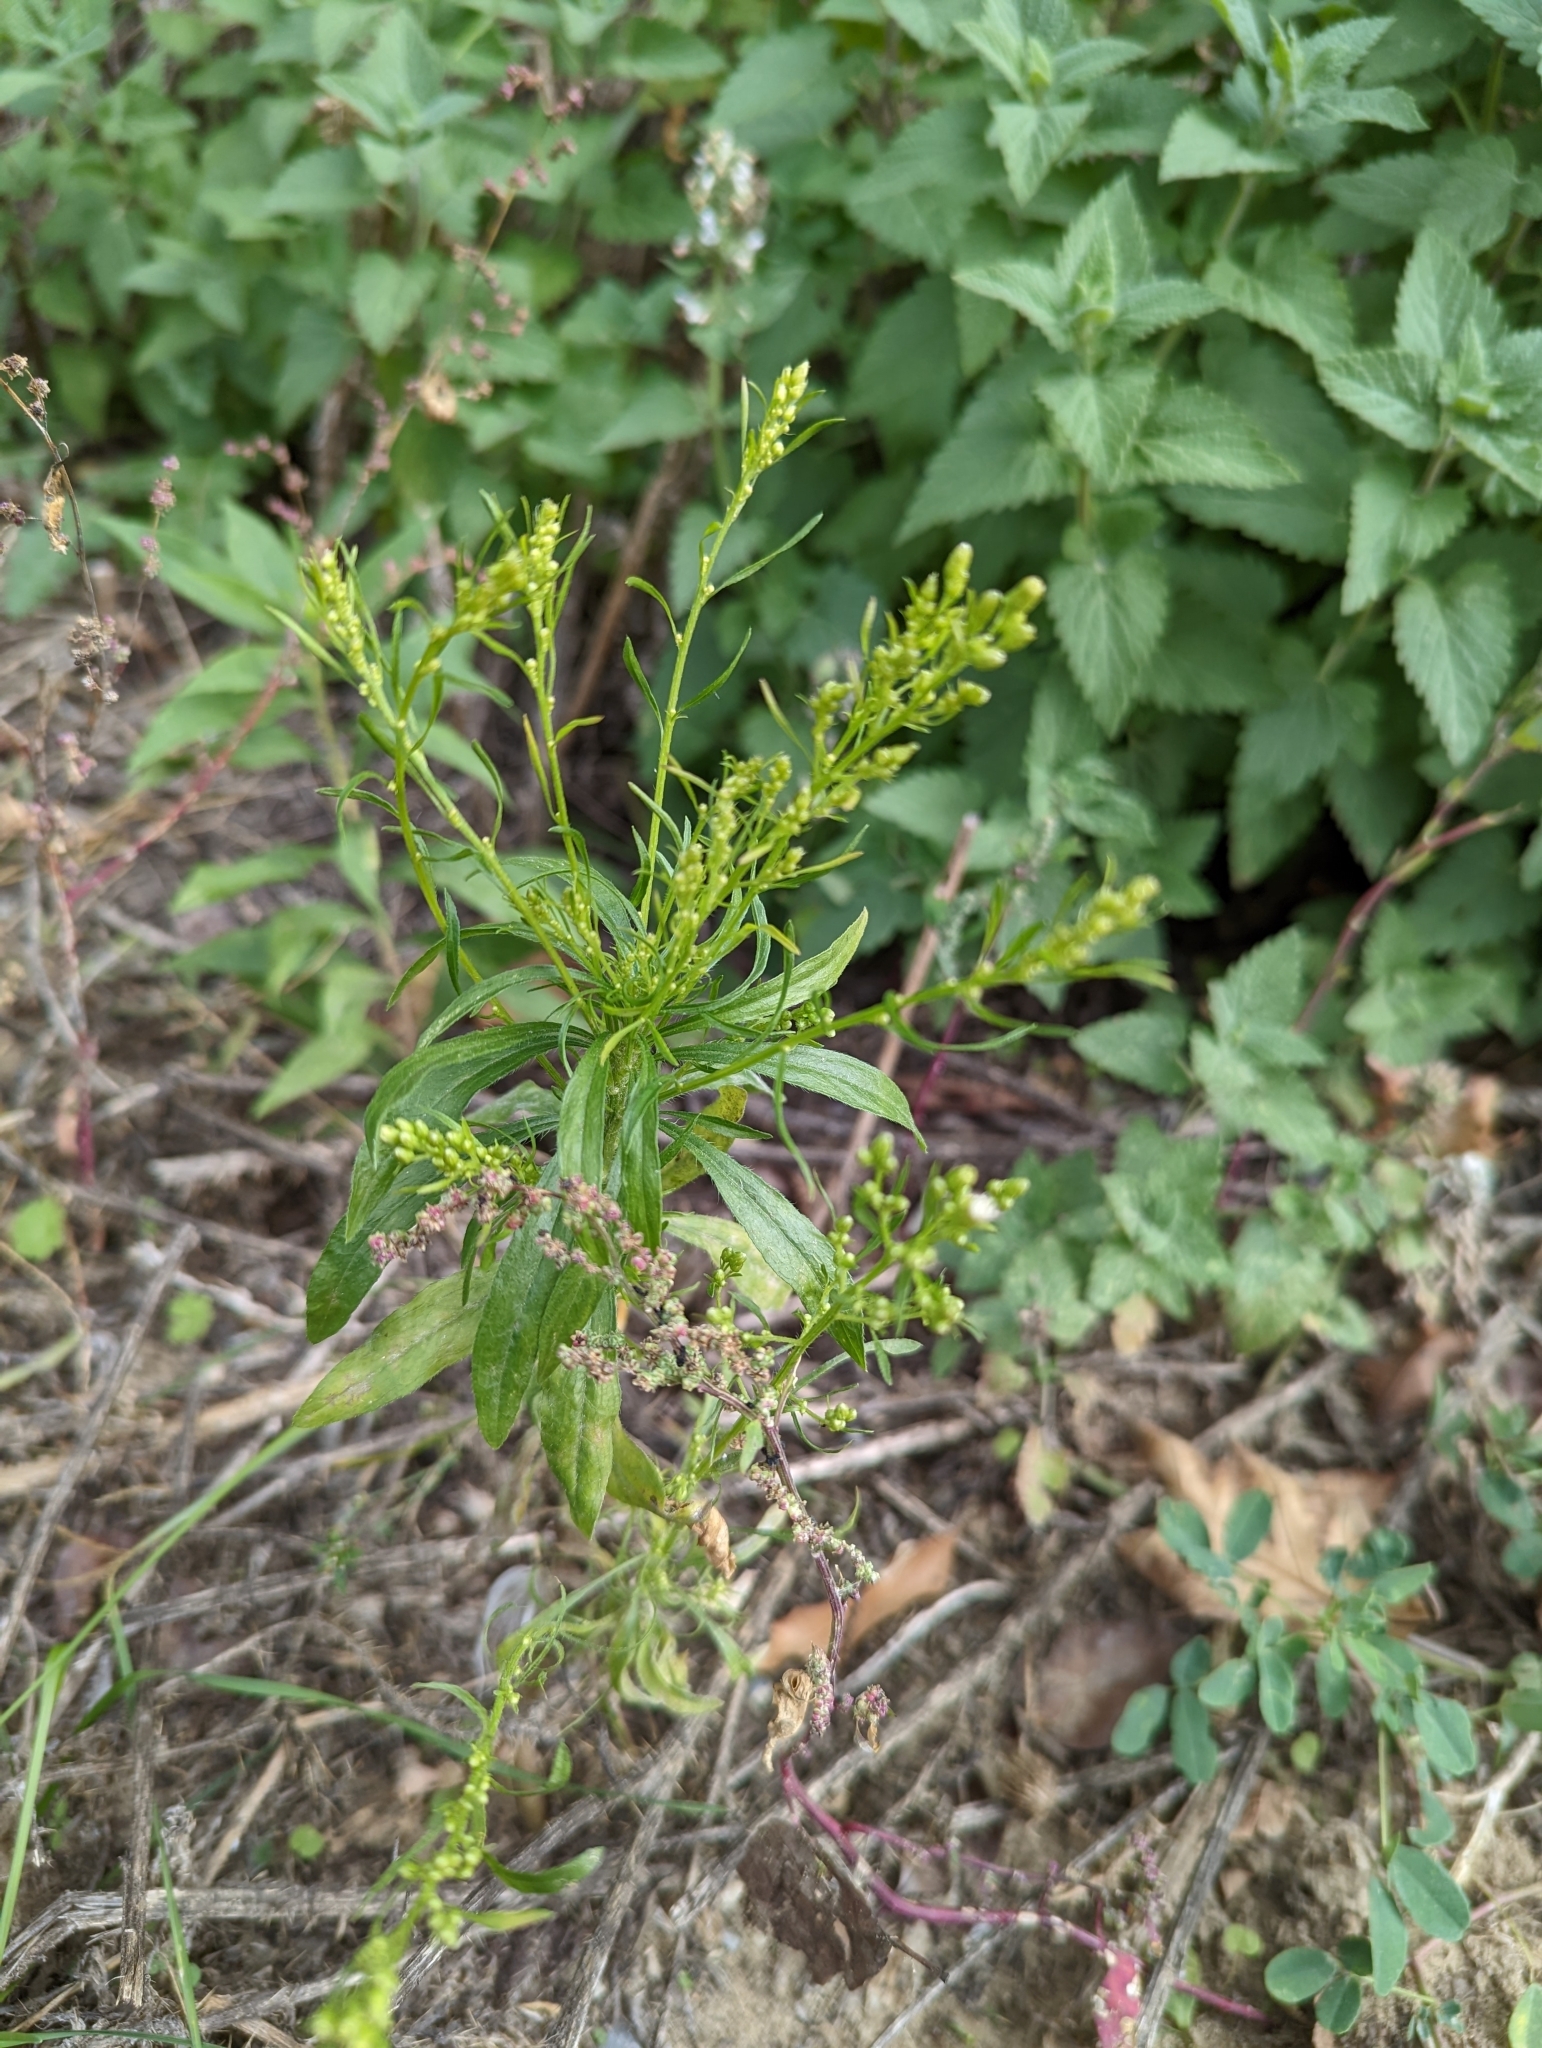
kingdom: Plantae
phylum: Tracheophyta
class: Magnoliopsida
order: Asterales
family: Asteraceae
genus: Erigeron
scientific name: Erigeron canadensis
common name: Canadian fleabane
